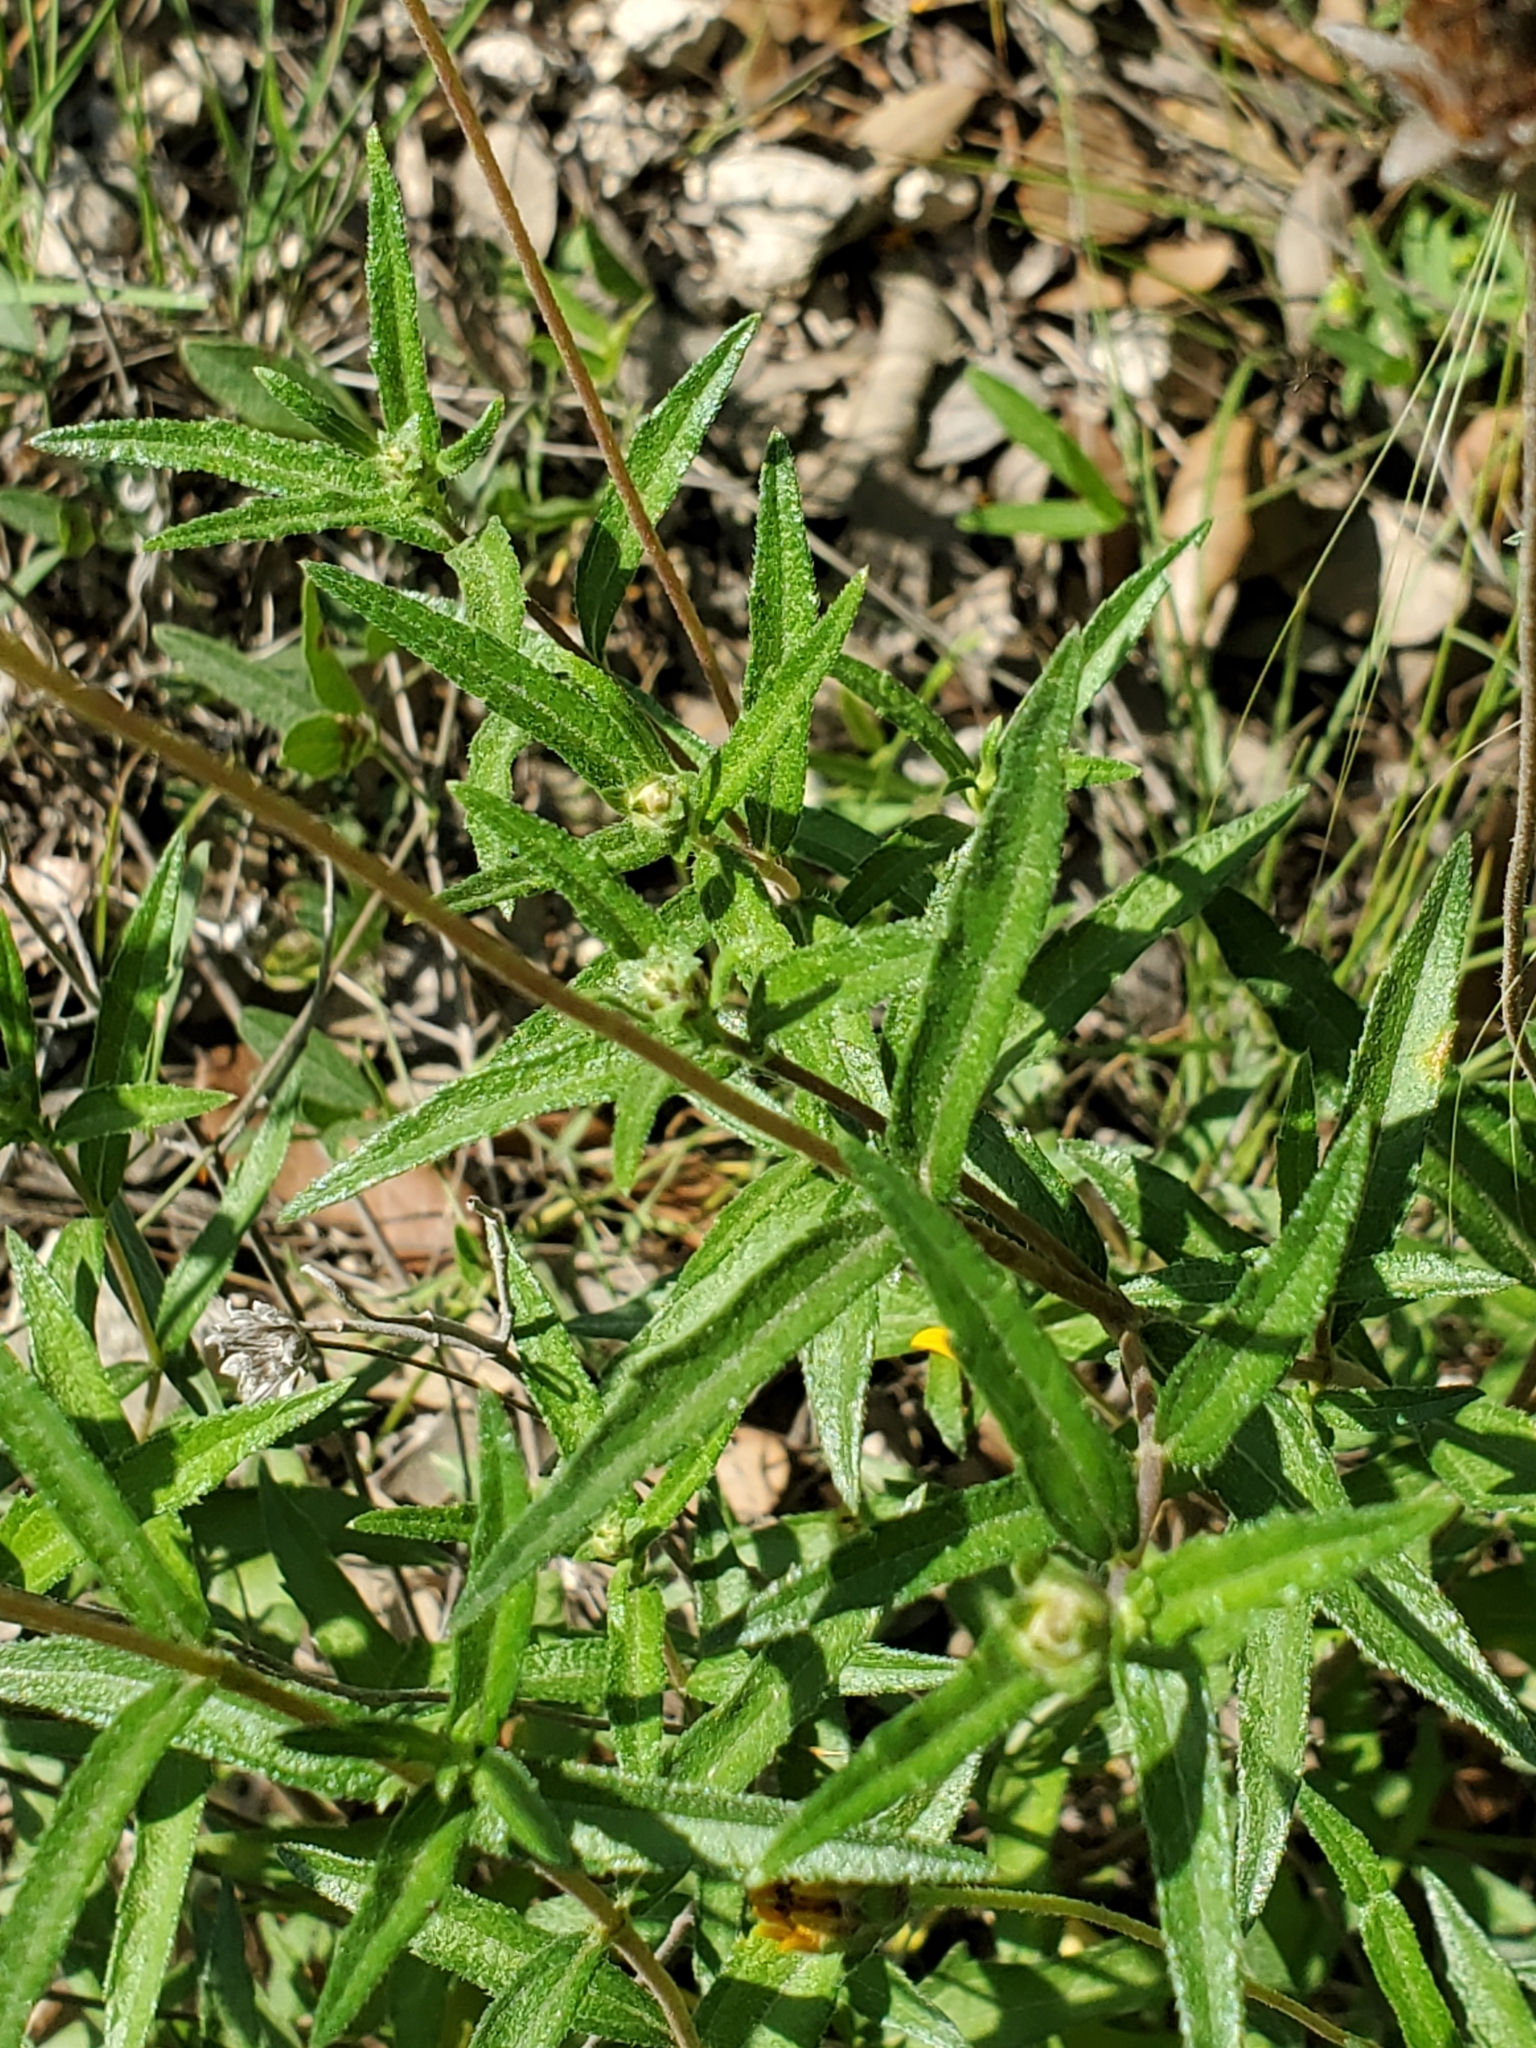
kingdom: Plantae
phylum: Tracheophyta
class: Magnoliopsida
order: Asterales
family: Asteraceae
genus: Wedelia
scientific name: Wedelia acapulcensis
